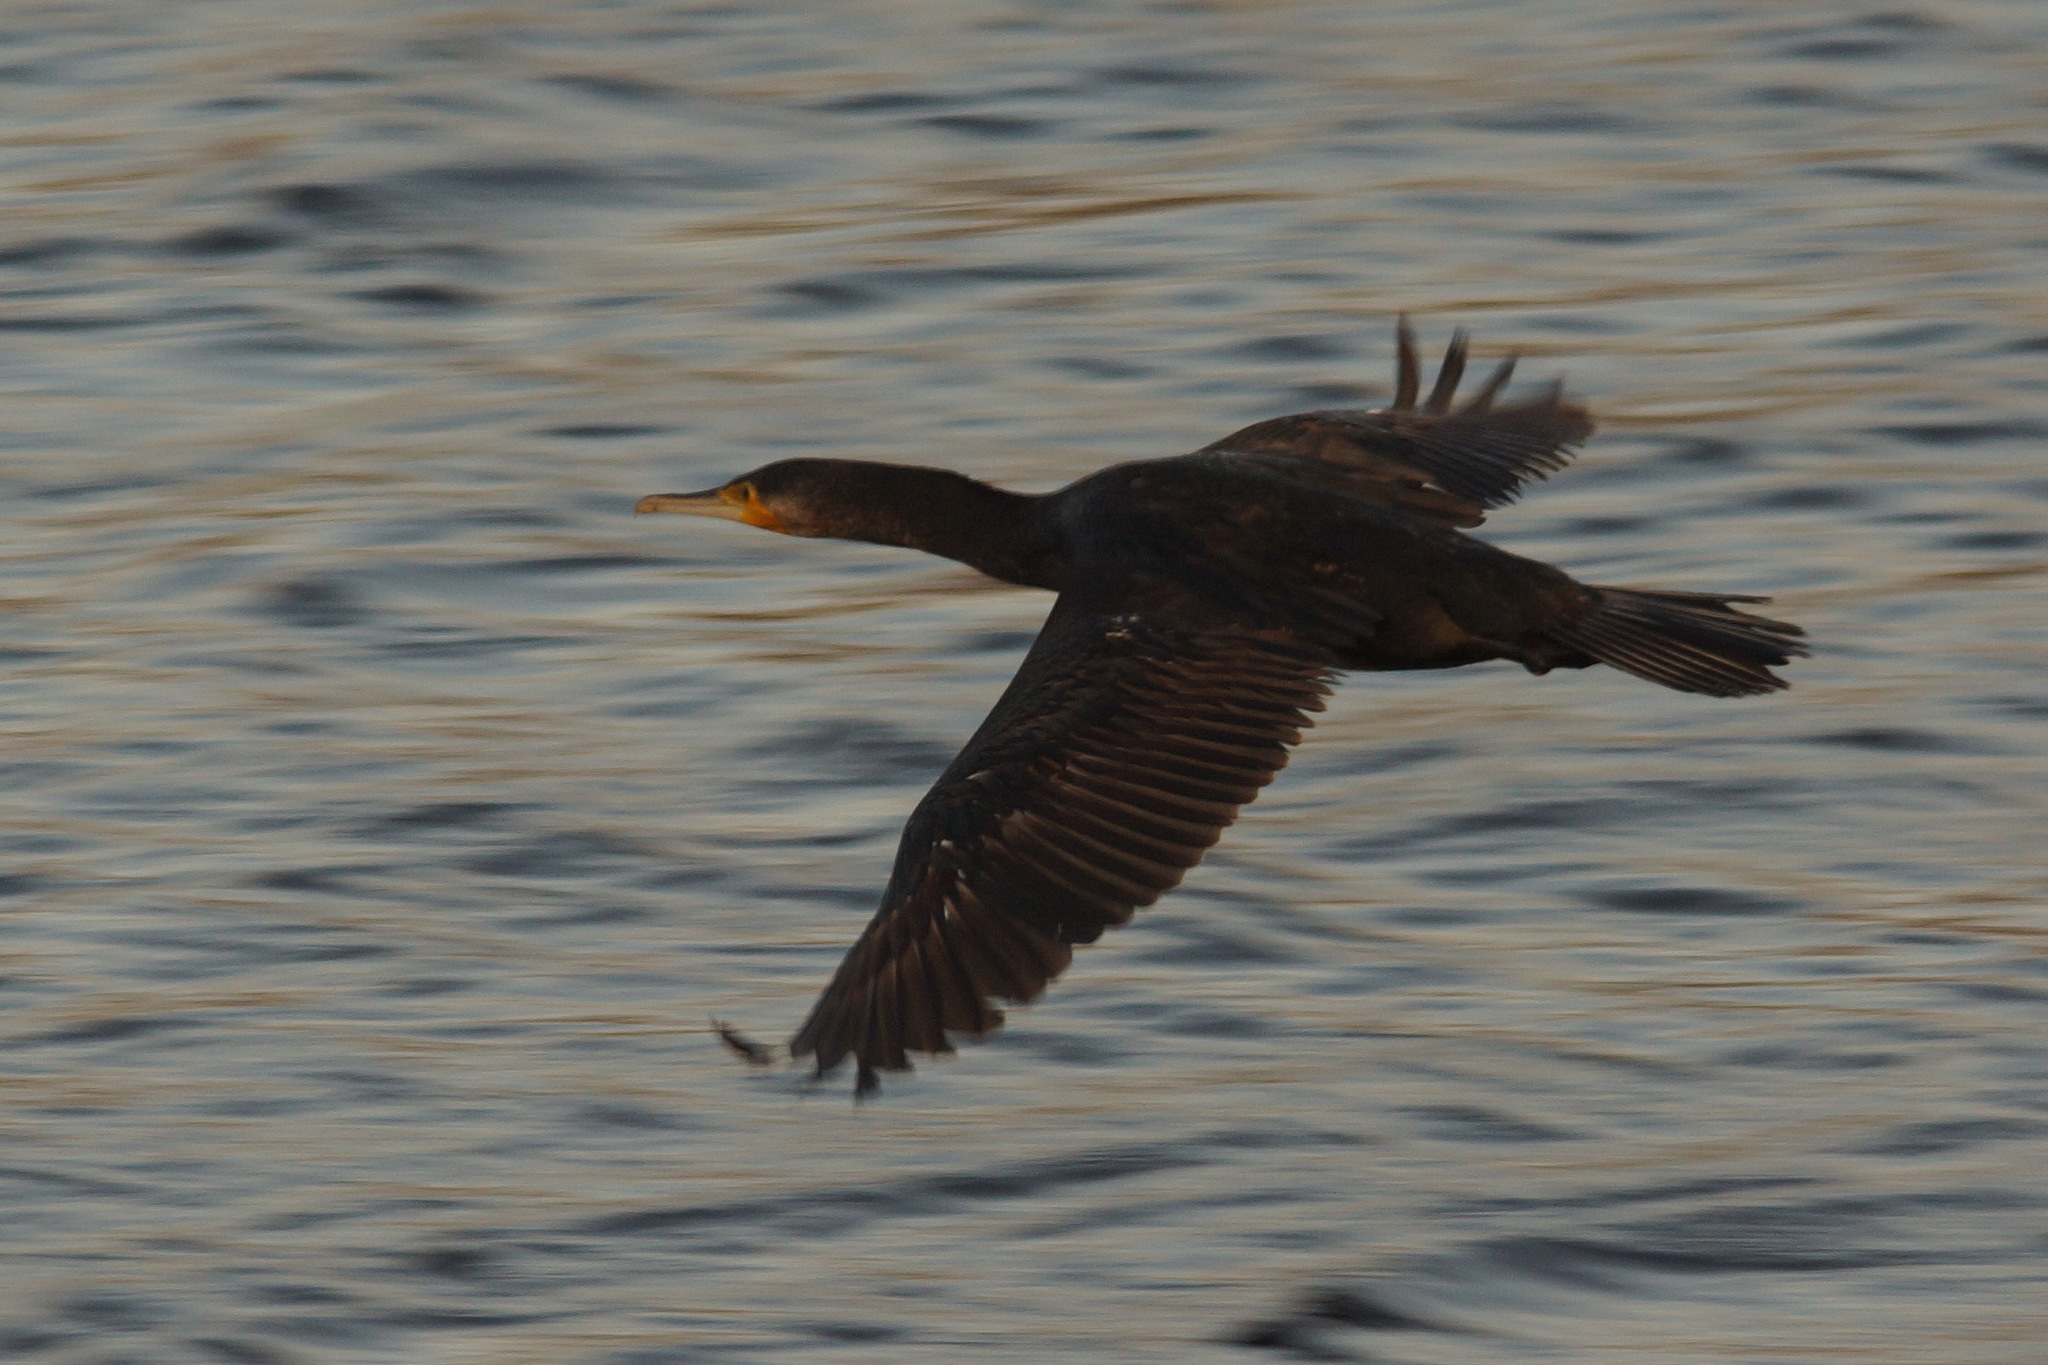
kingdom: Animalia
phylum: Chordata
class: Aves
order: Suliformes
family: Phalacrocoracidae
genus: Phalacrocorax
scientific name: Phalacrocorax carbo
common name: Great cormorant
